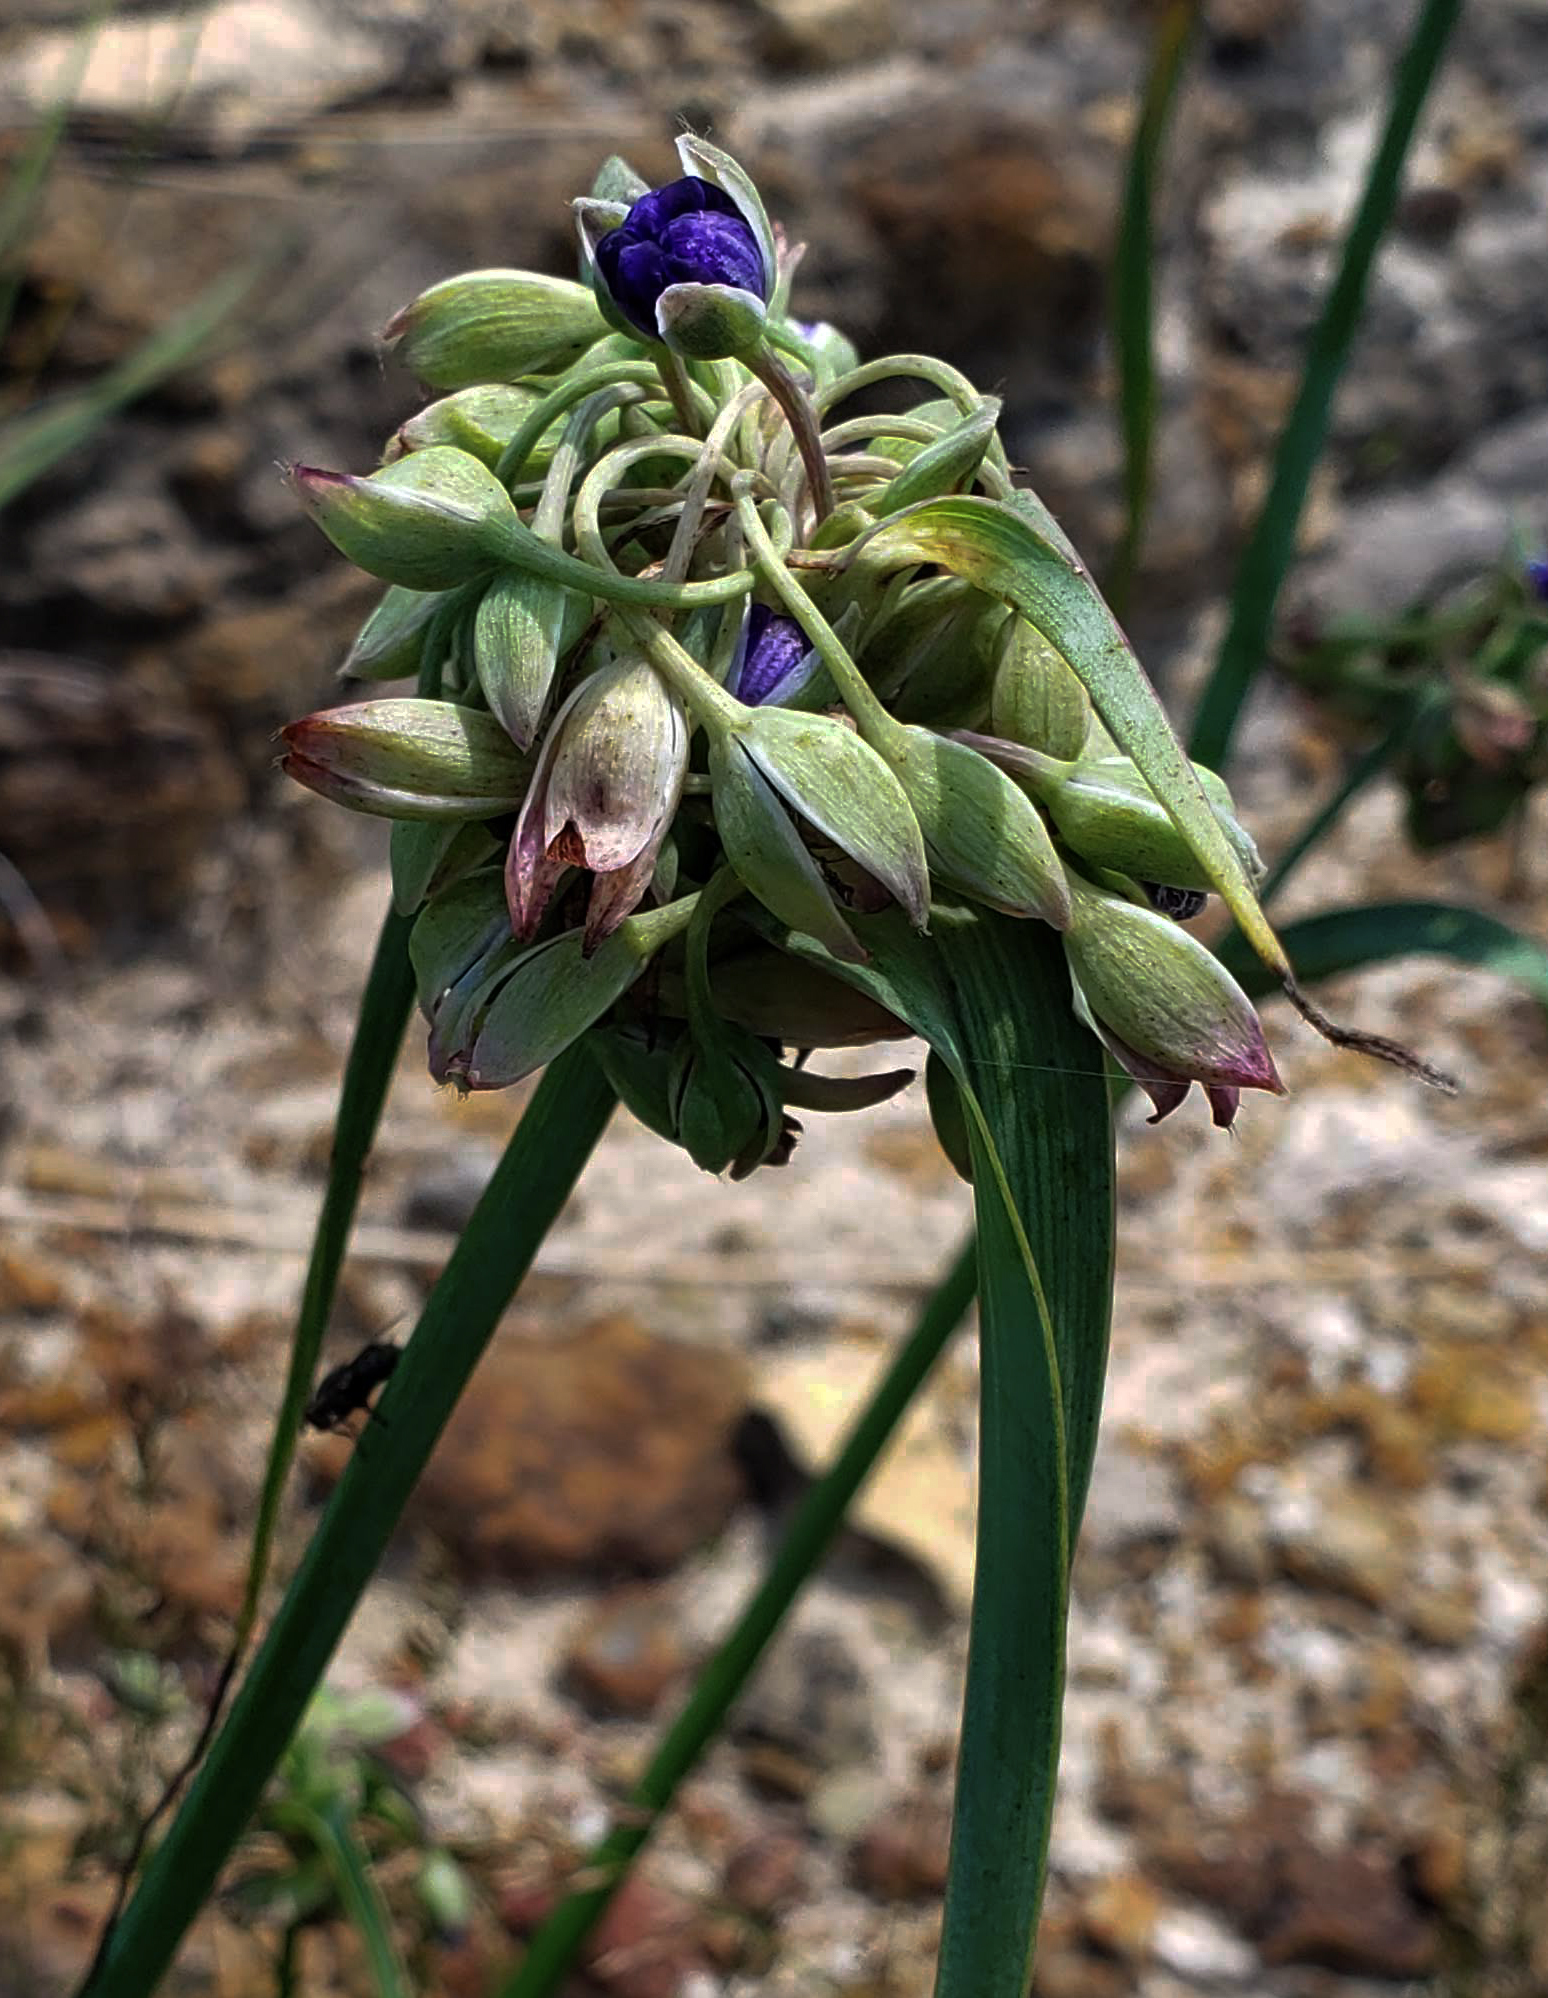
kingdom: Plantae
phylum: Tracheophyta
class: Liliopsida
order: Commelinales
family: Commelinaceae
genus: Tradescantia
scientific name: Tradescantia ohiensis
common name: Ohio spiderwort
